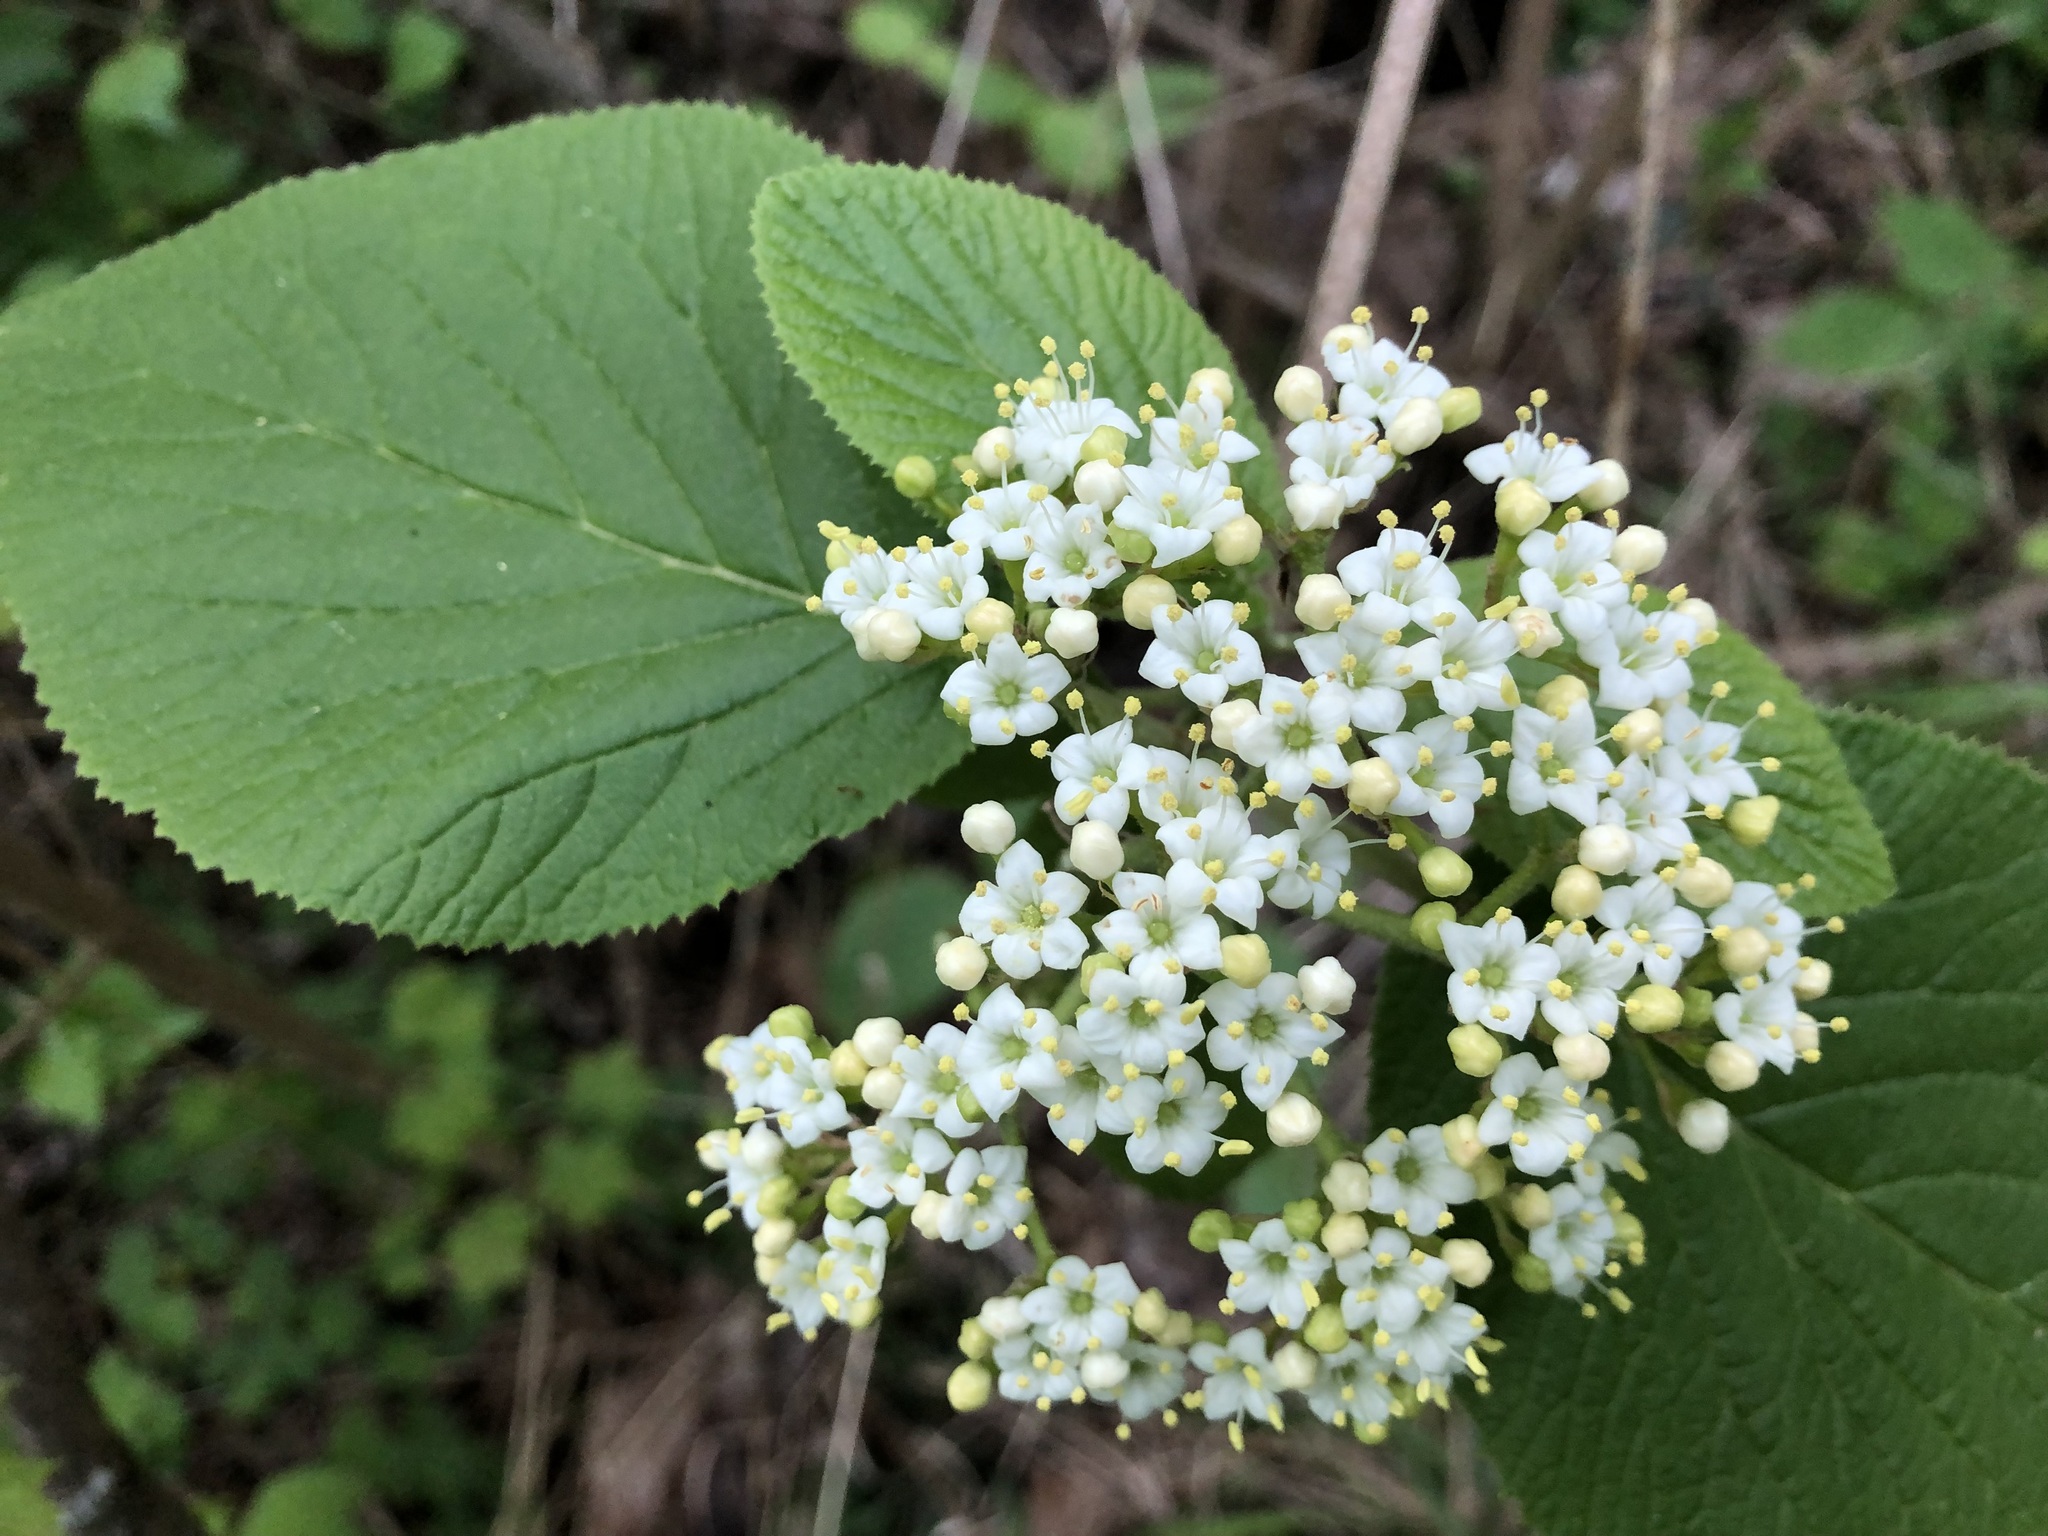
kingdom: Plantae
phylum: Tracheophyta
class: Magnoliopsida
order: Dipsacales
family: Viburnaceae
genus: Viburnum
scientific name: Viburnum lantana
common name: Wayfaring tree
